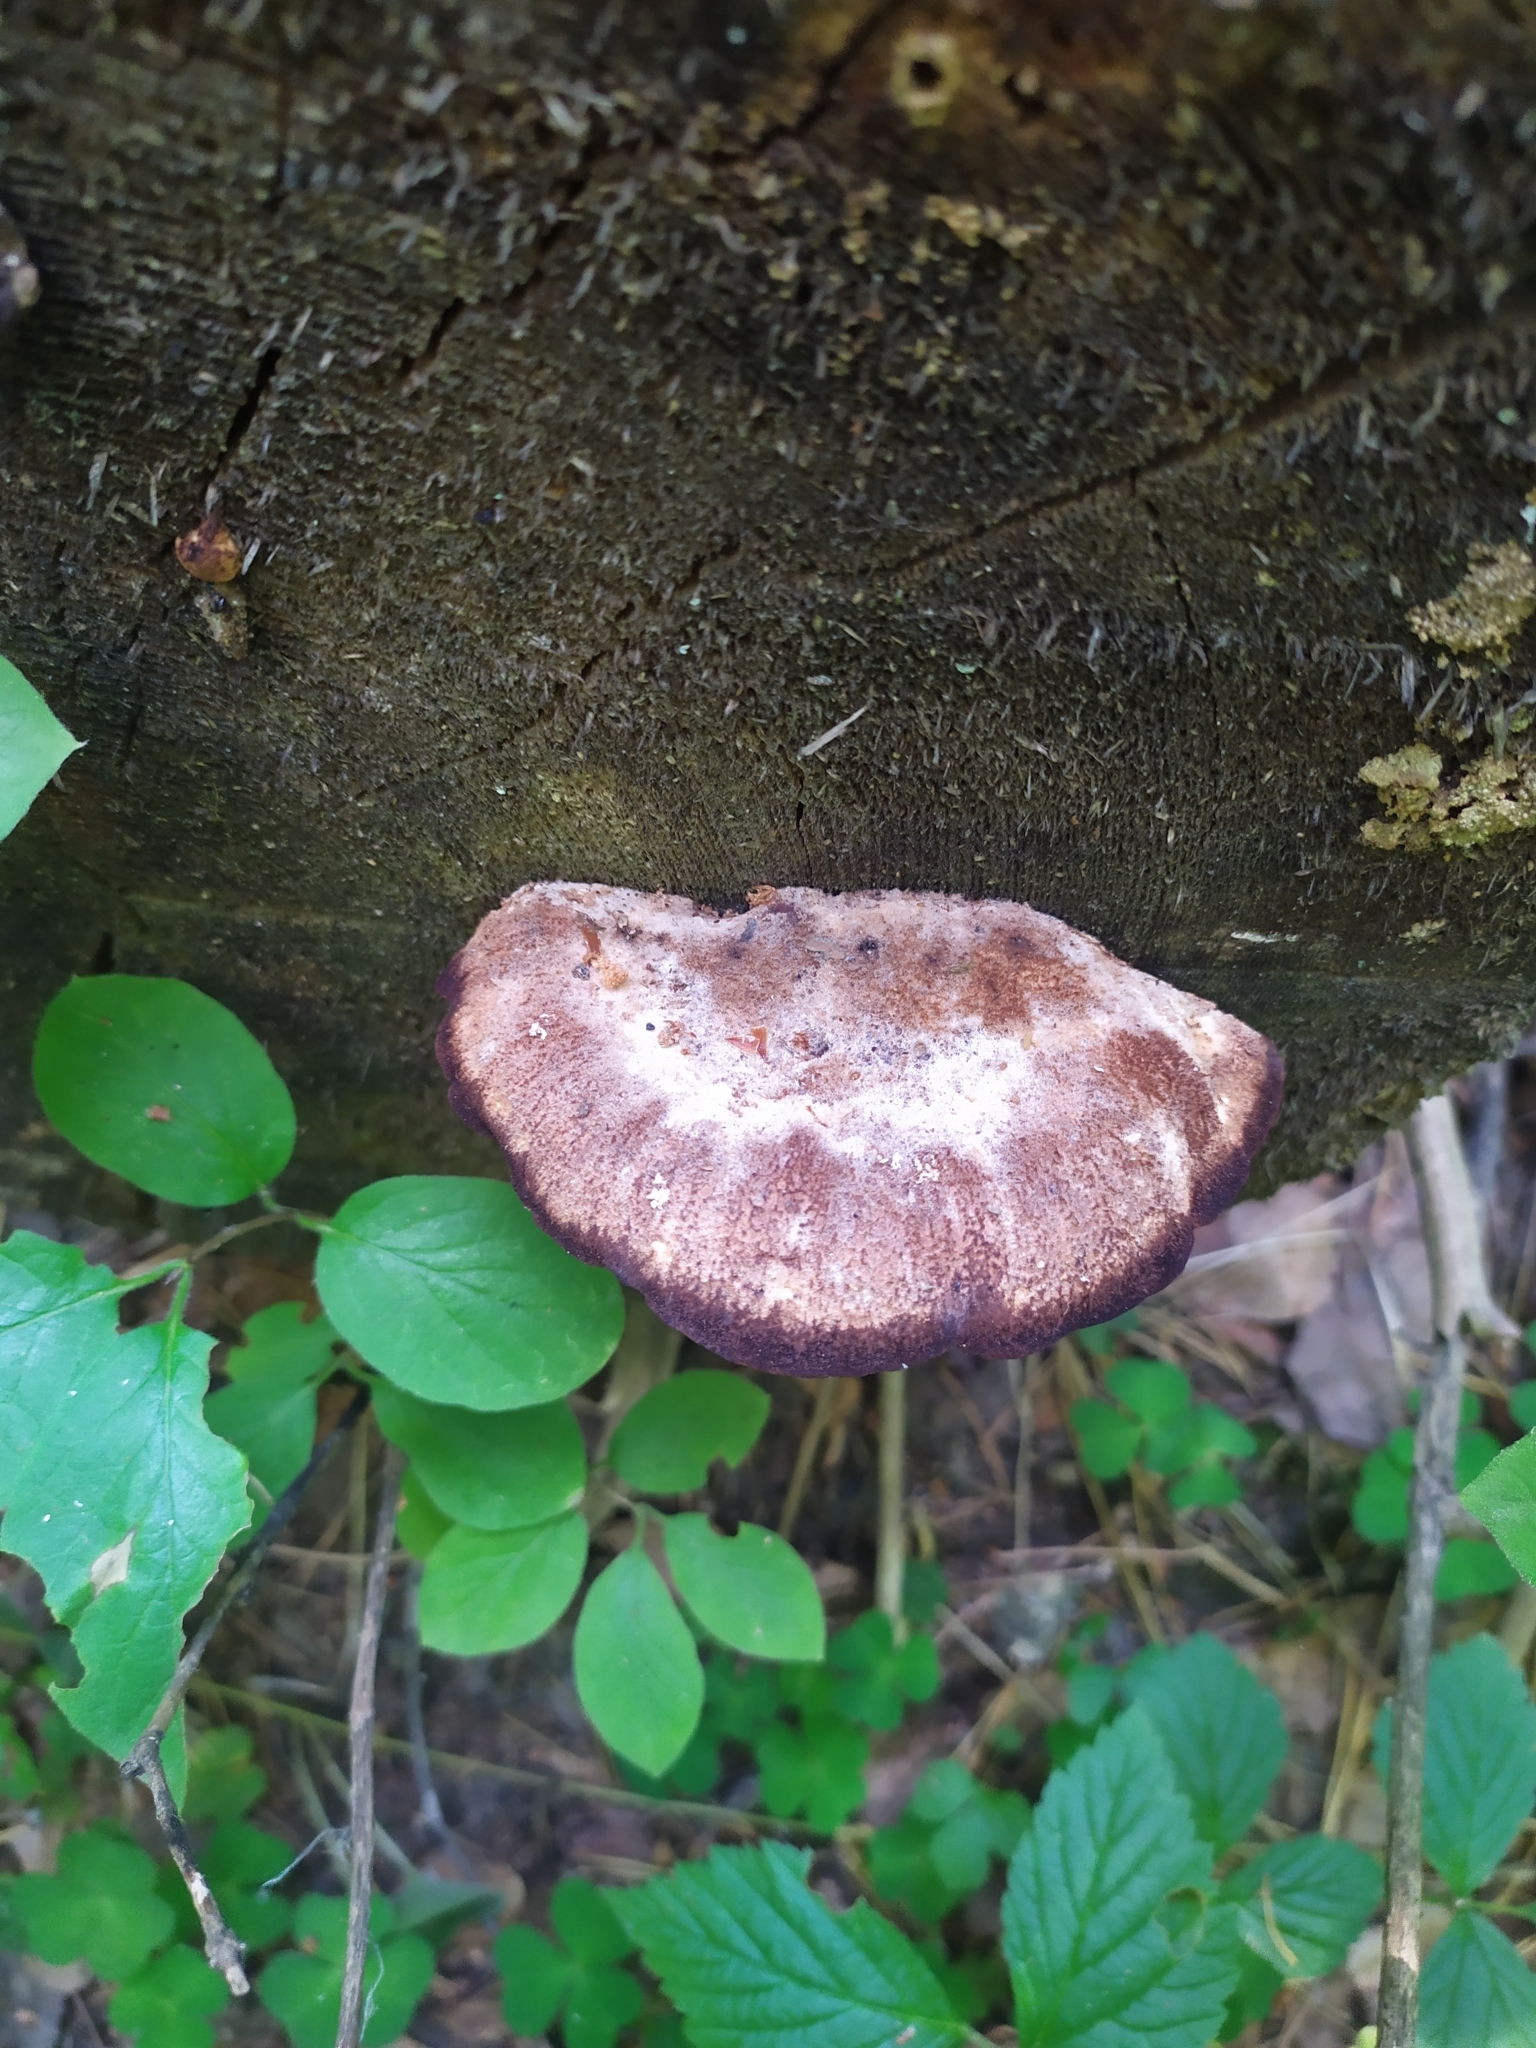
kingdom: Fungi
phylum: Basidiomycota
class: Agaricomycetes
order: Polyporales
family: Dacryobolaceae
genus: Amylocystis
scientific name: Amylocystis lapponica
